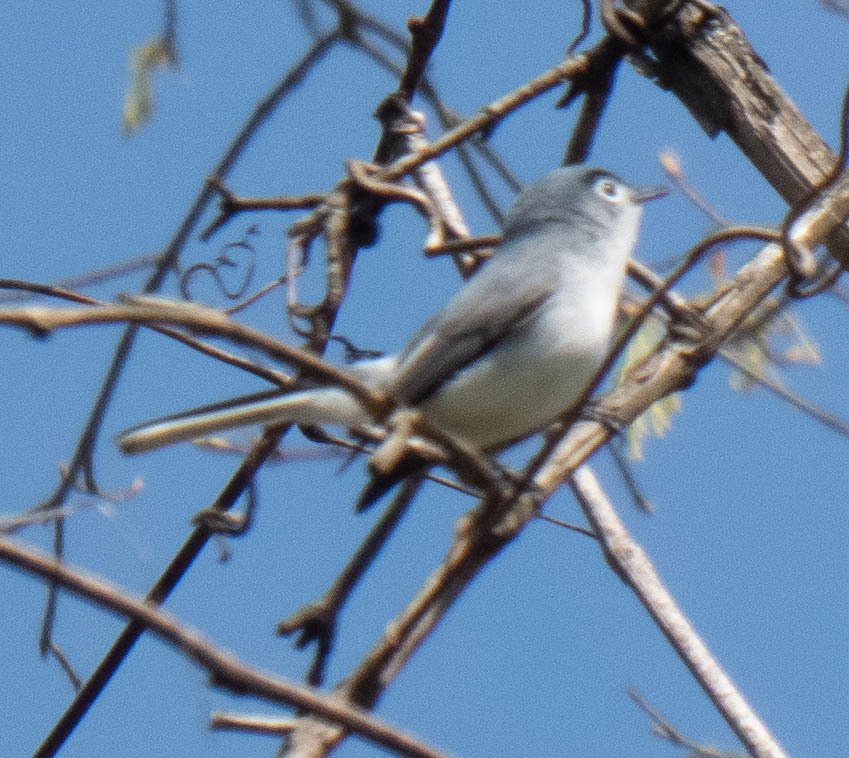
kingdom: Animalia
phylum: Chordata
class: Aves
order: Passeriformes
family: Polioptilidae
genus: Polioptila
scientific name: Polioptila caerulea
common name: Blue-gray gnatcatcher
